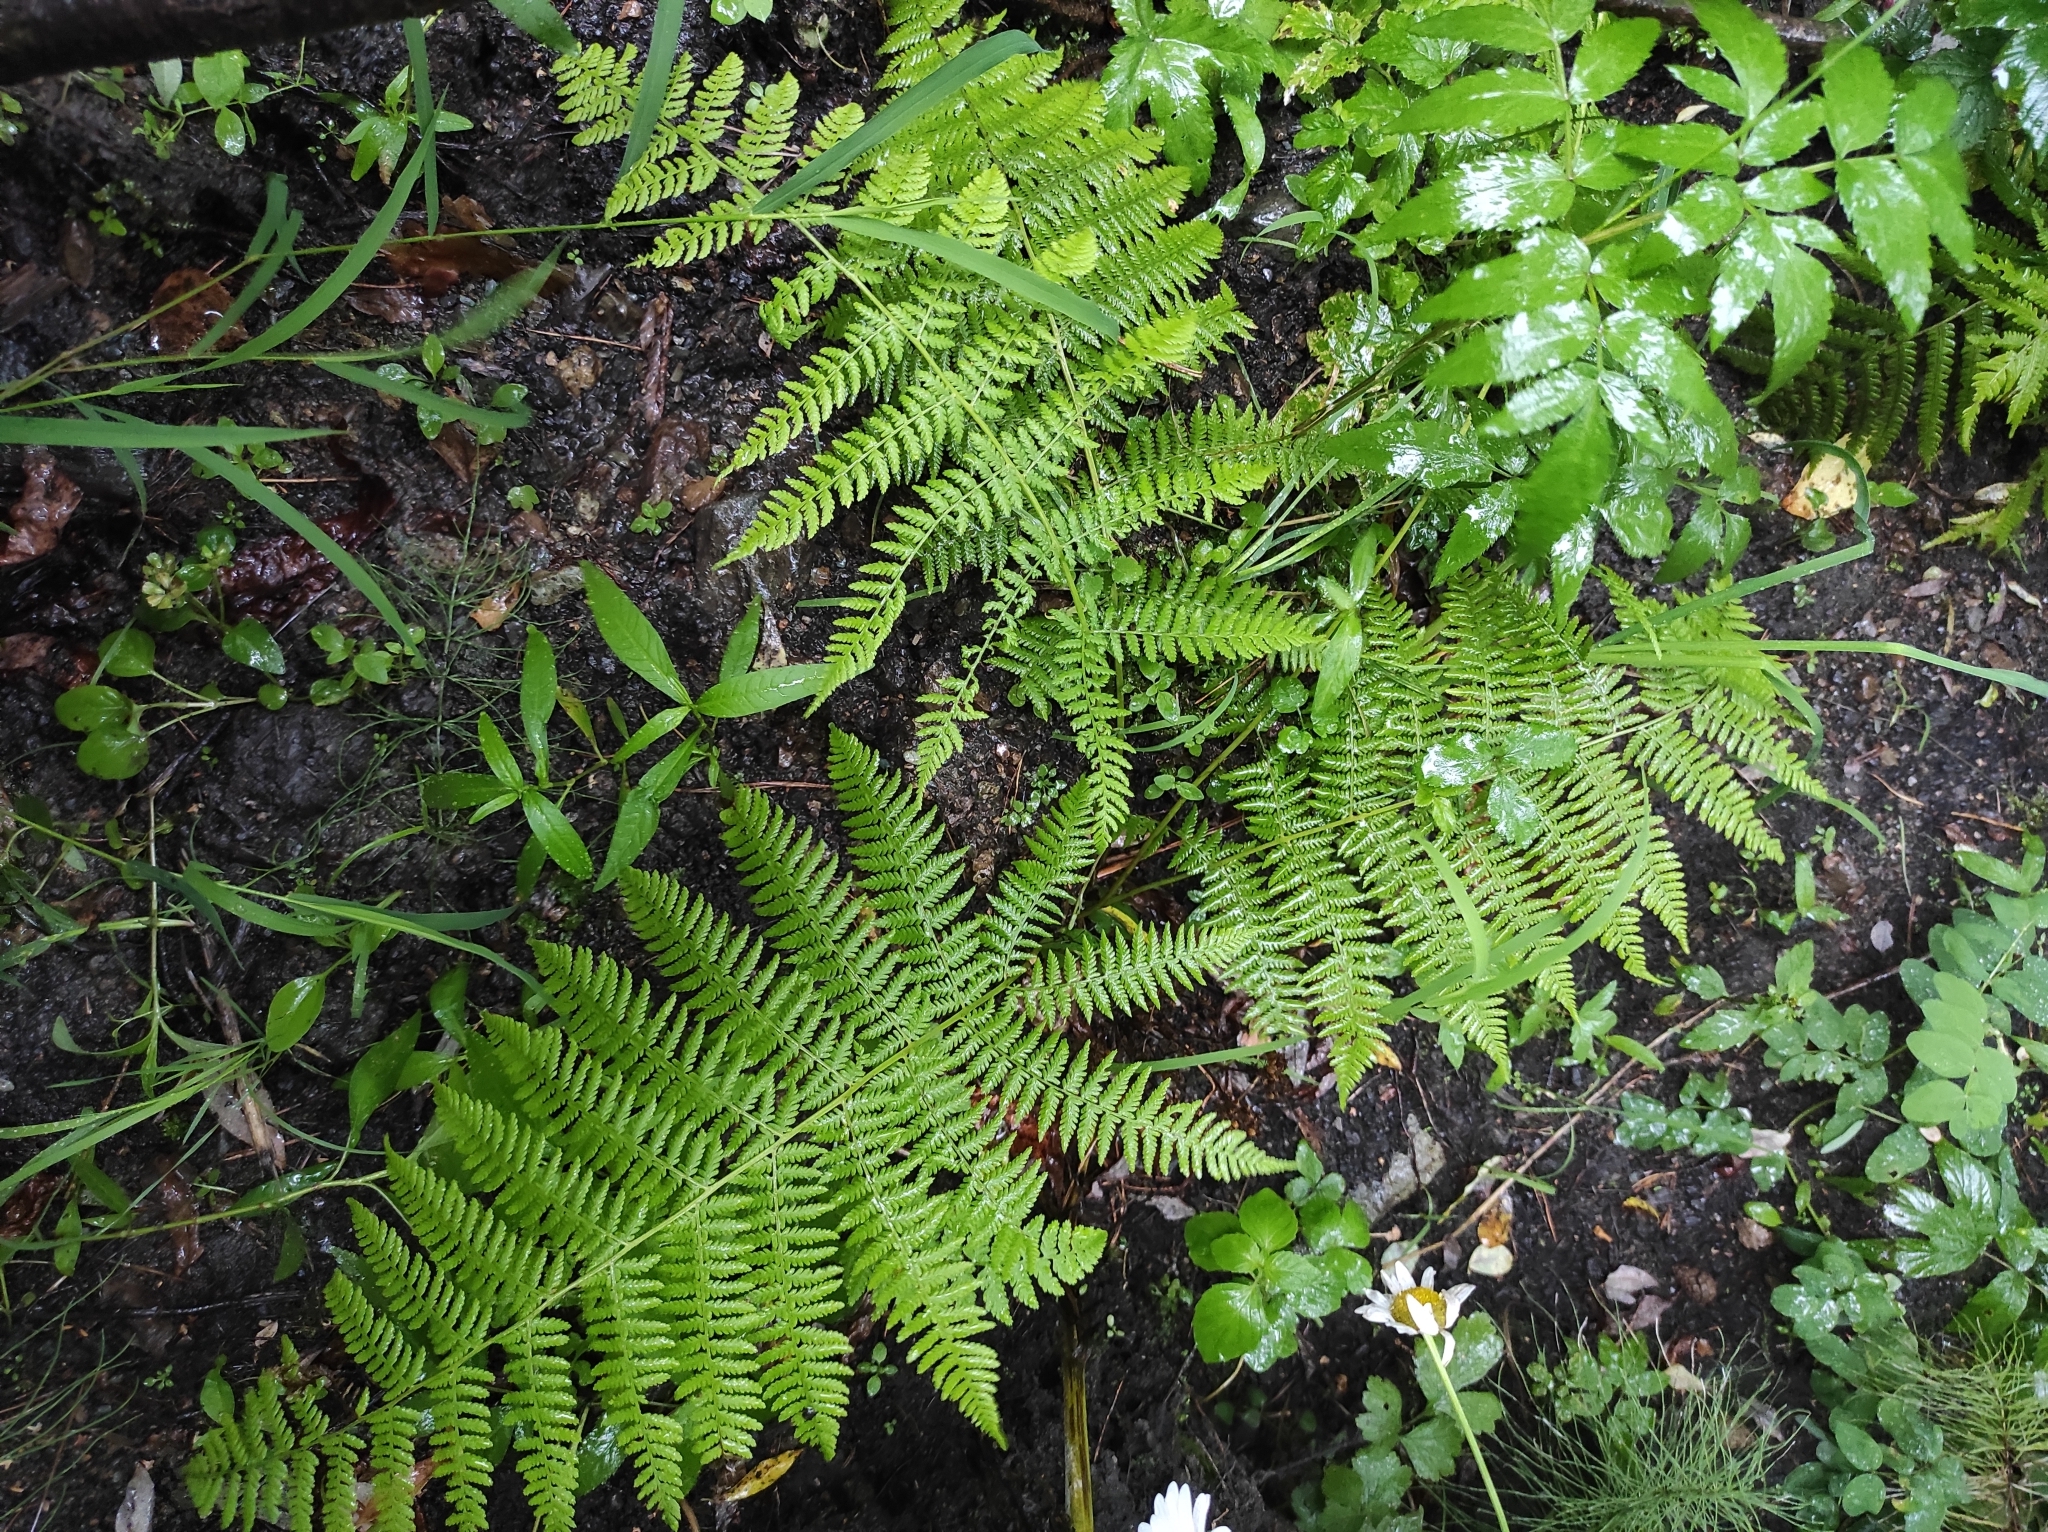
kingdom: Plantae
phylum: Tracheophyta
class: Polypodiopsida
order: Polypodiales
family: Athyriaceae
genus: Athyrium
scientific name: Athyrium filix-femina
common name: Lady fern
